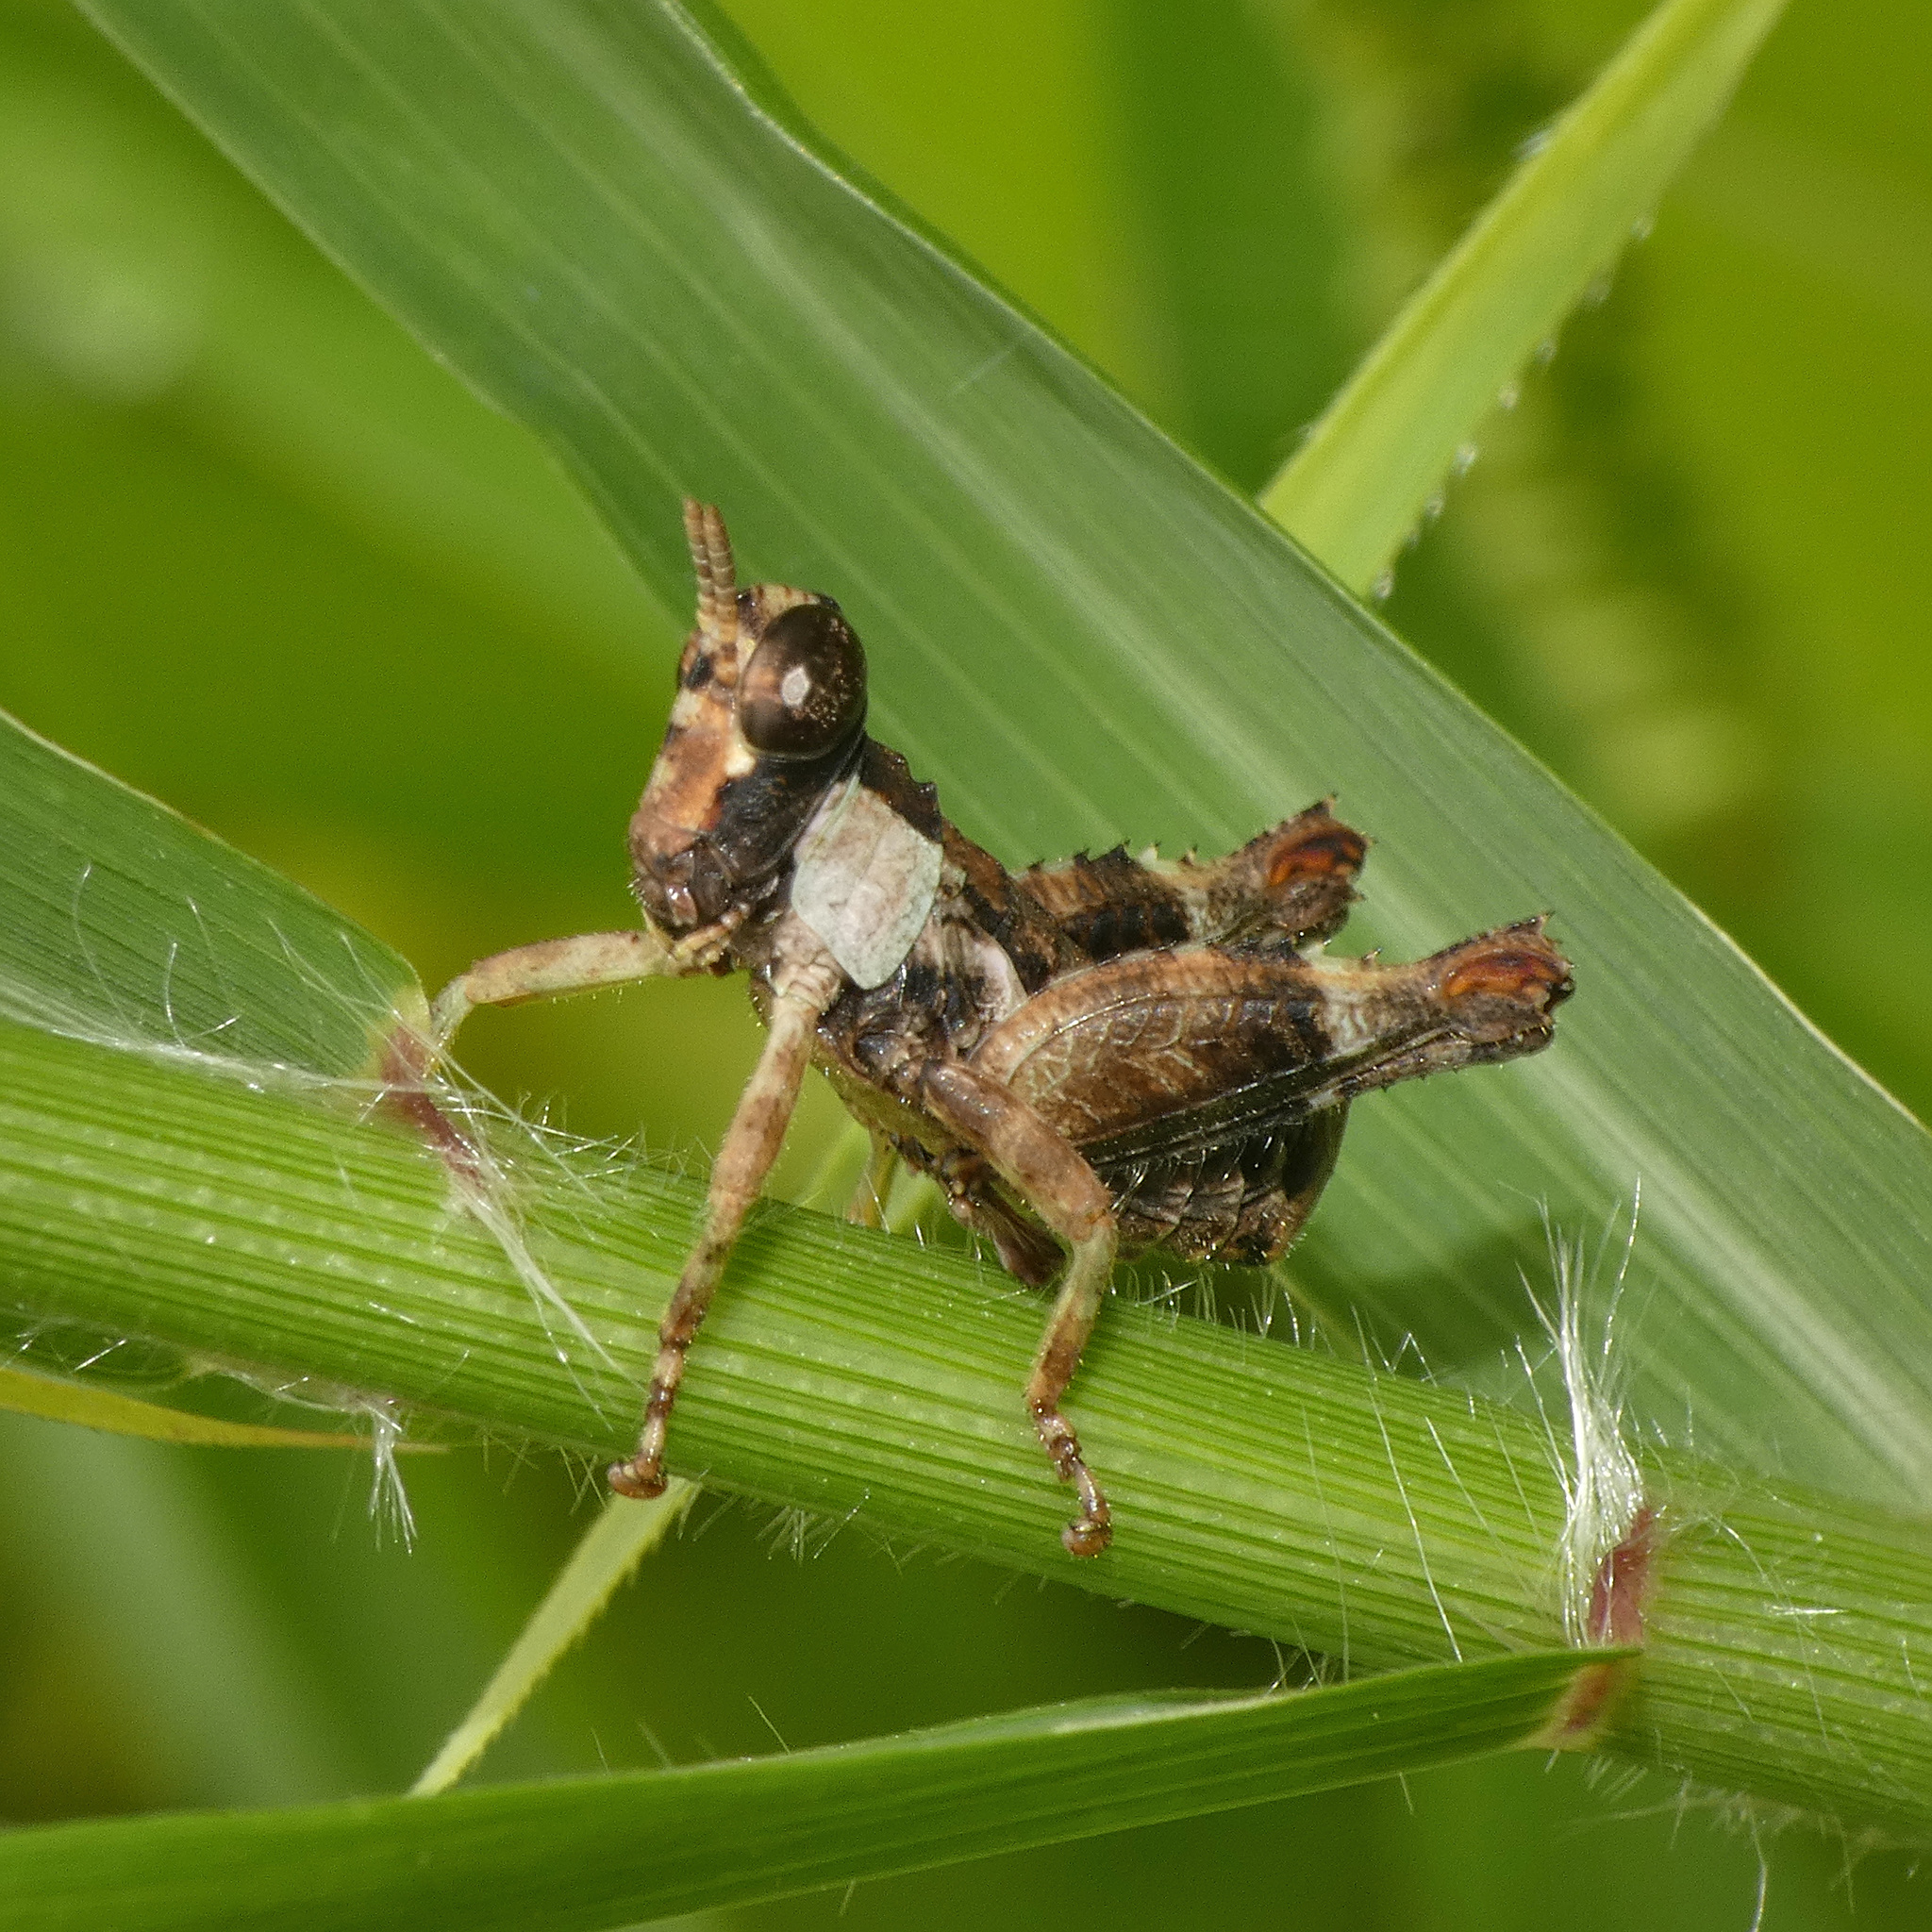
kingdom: Animalia
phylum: Arthropoda
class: Insecta
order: Orthoptera
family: Thericleidae
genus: Hollisia
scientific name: Hollisia nigropicta
